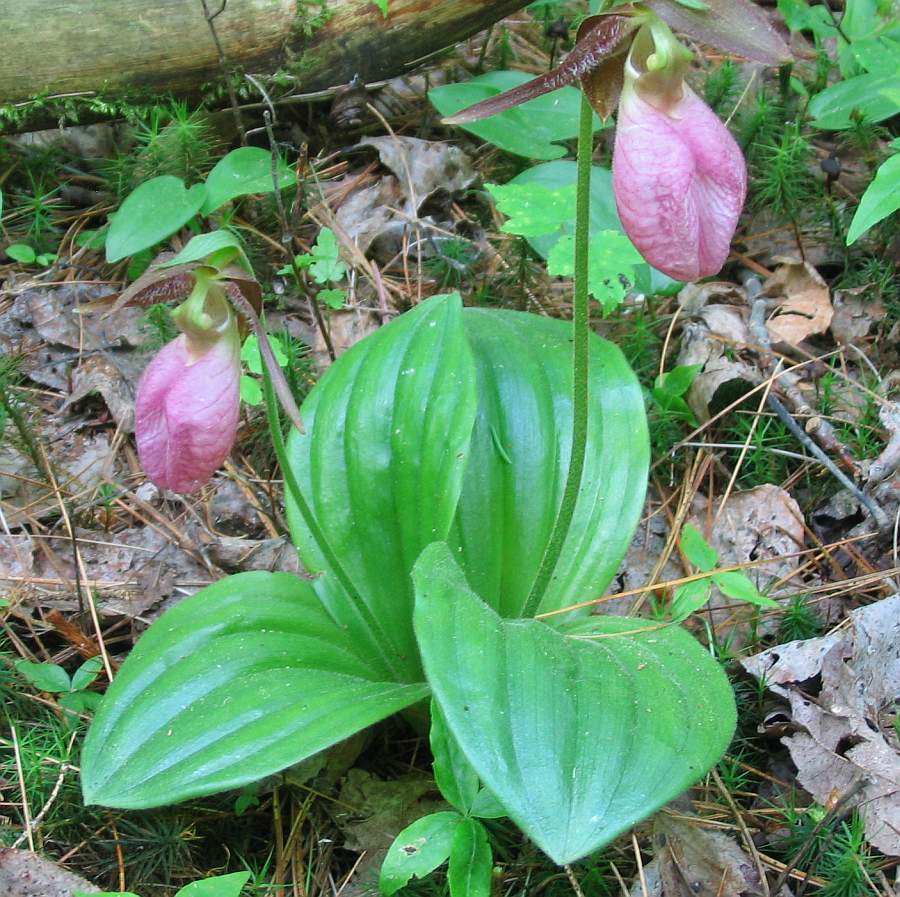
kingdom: Plantae
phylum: Tracheophyta
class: Liliopsida
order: Asparagales
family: Orchidaceae
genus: Cypripedium
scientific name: Cypripedium acaule
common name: Pink lady's-slipper
